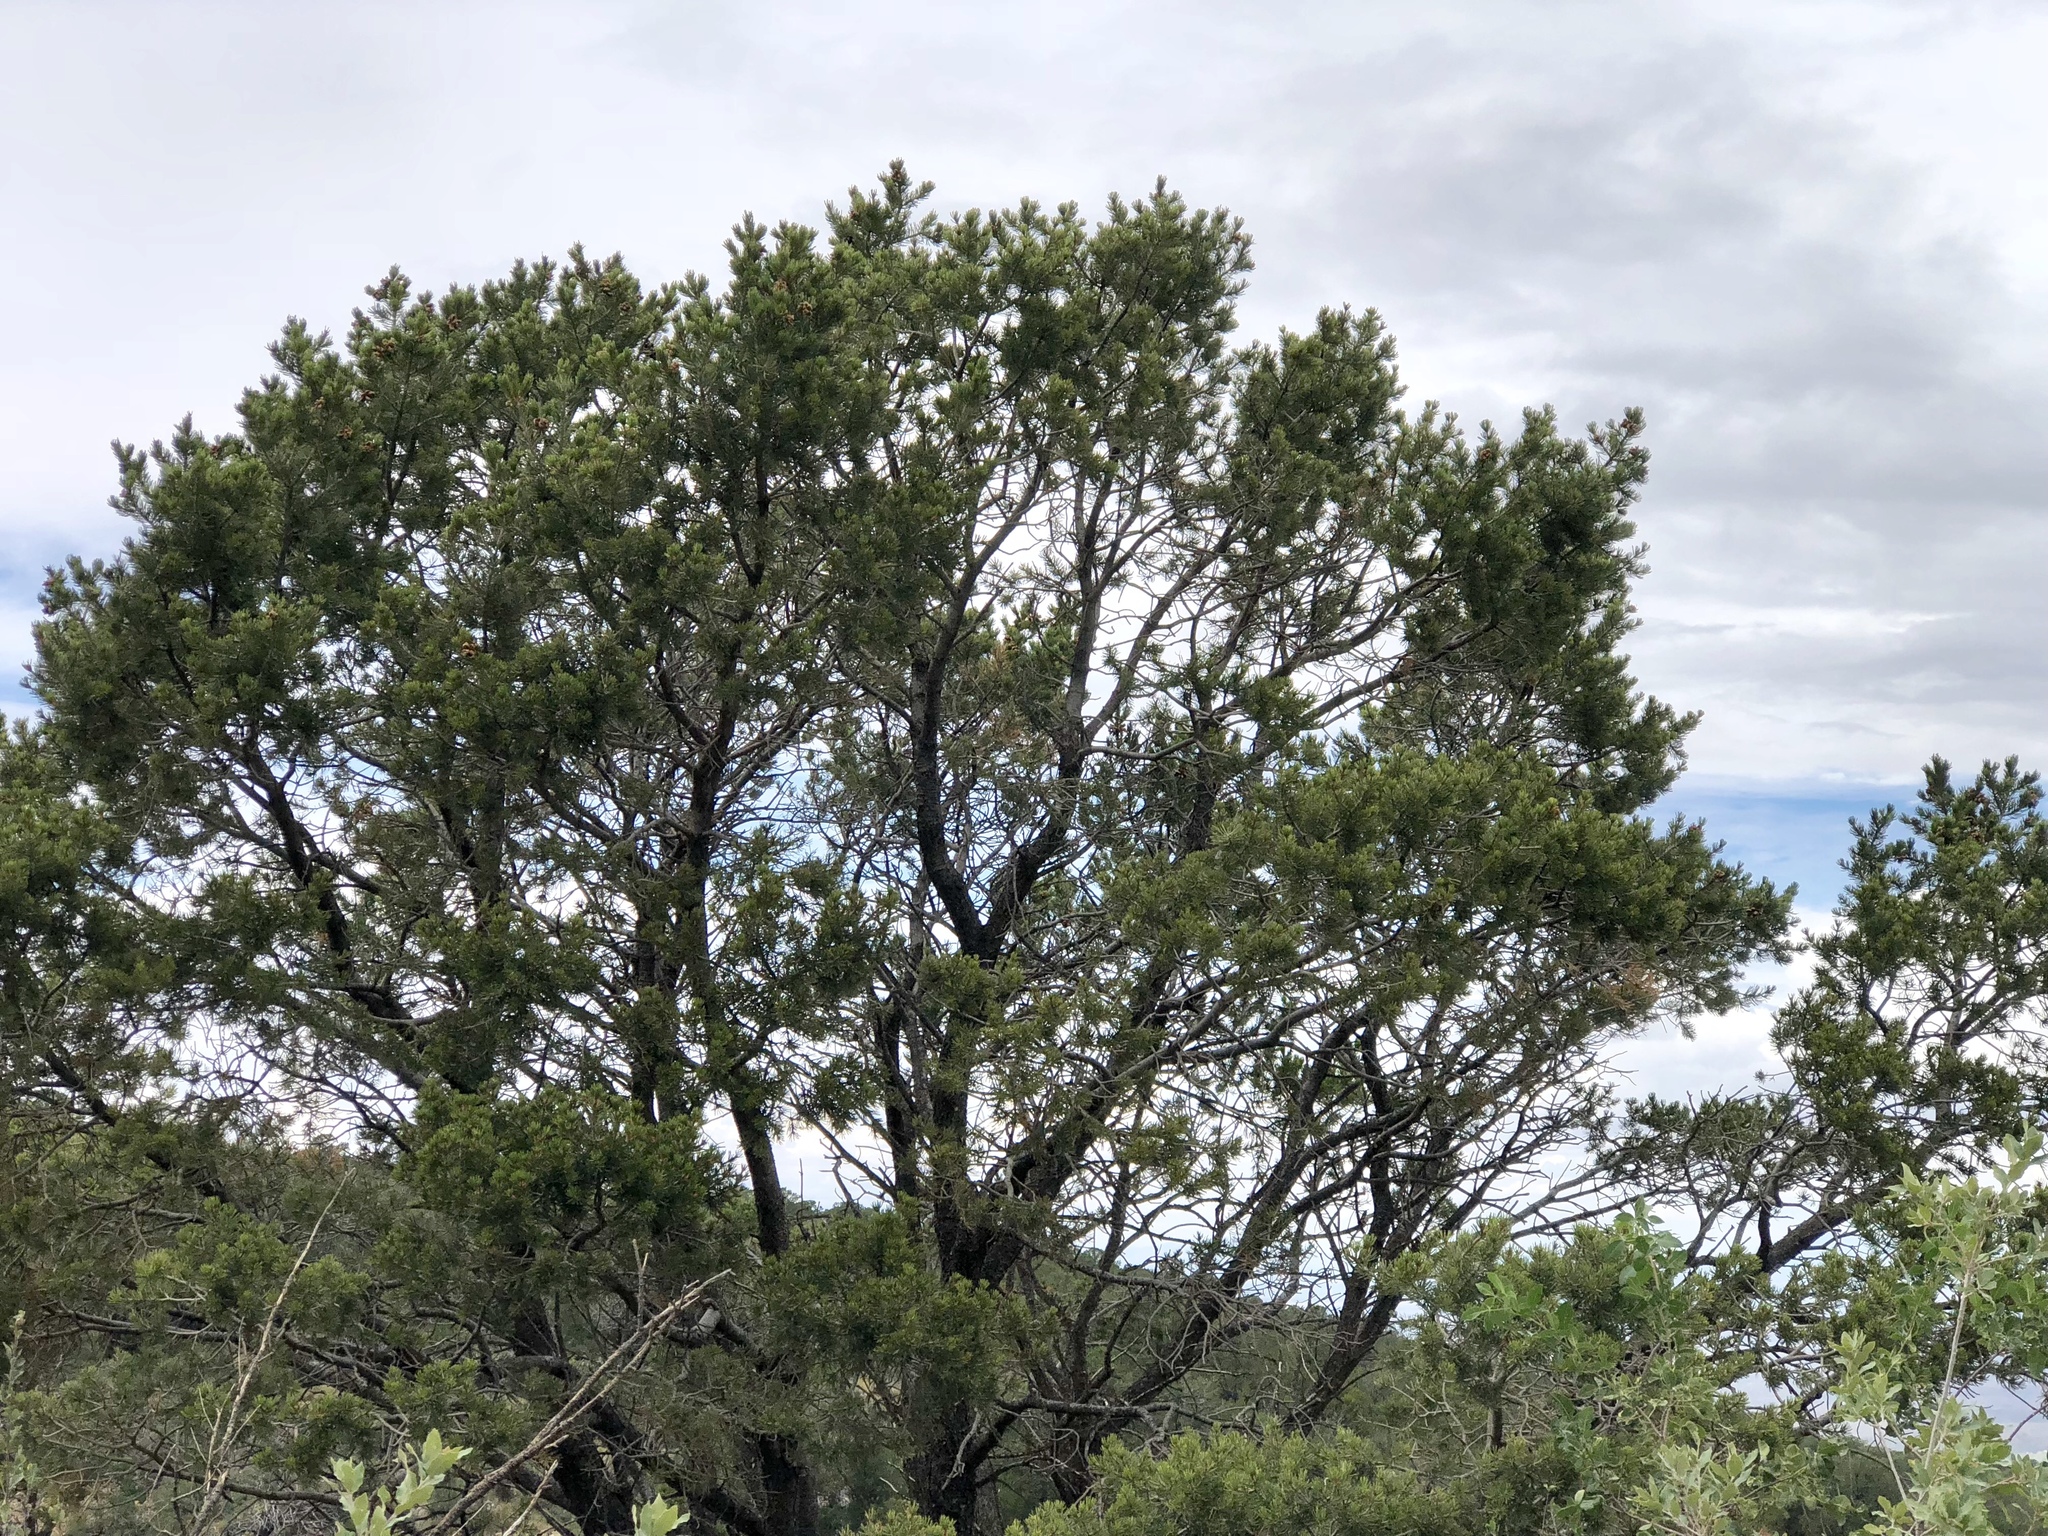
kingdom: Plantae
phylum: Tracheophyta
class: Pinopsida
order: Pinales
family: Pinaceae
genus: Pinus
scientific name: Pinus edulis
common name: Colorado pinyon
